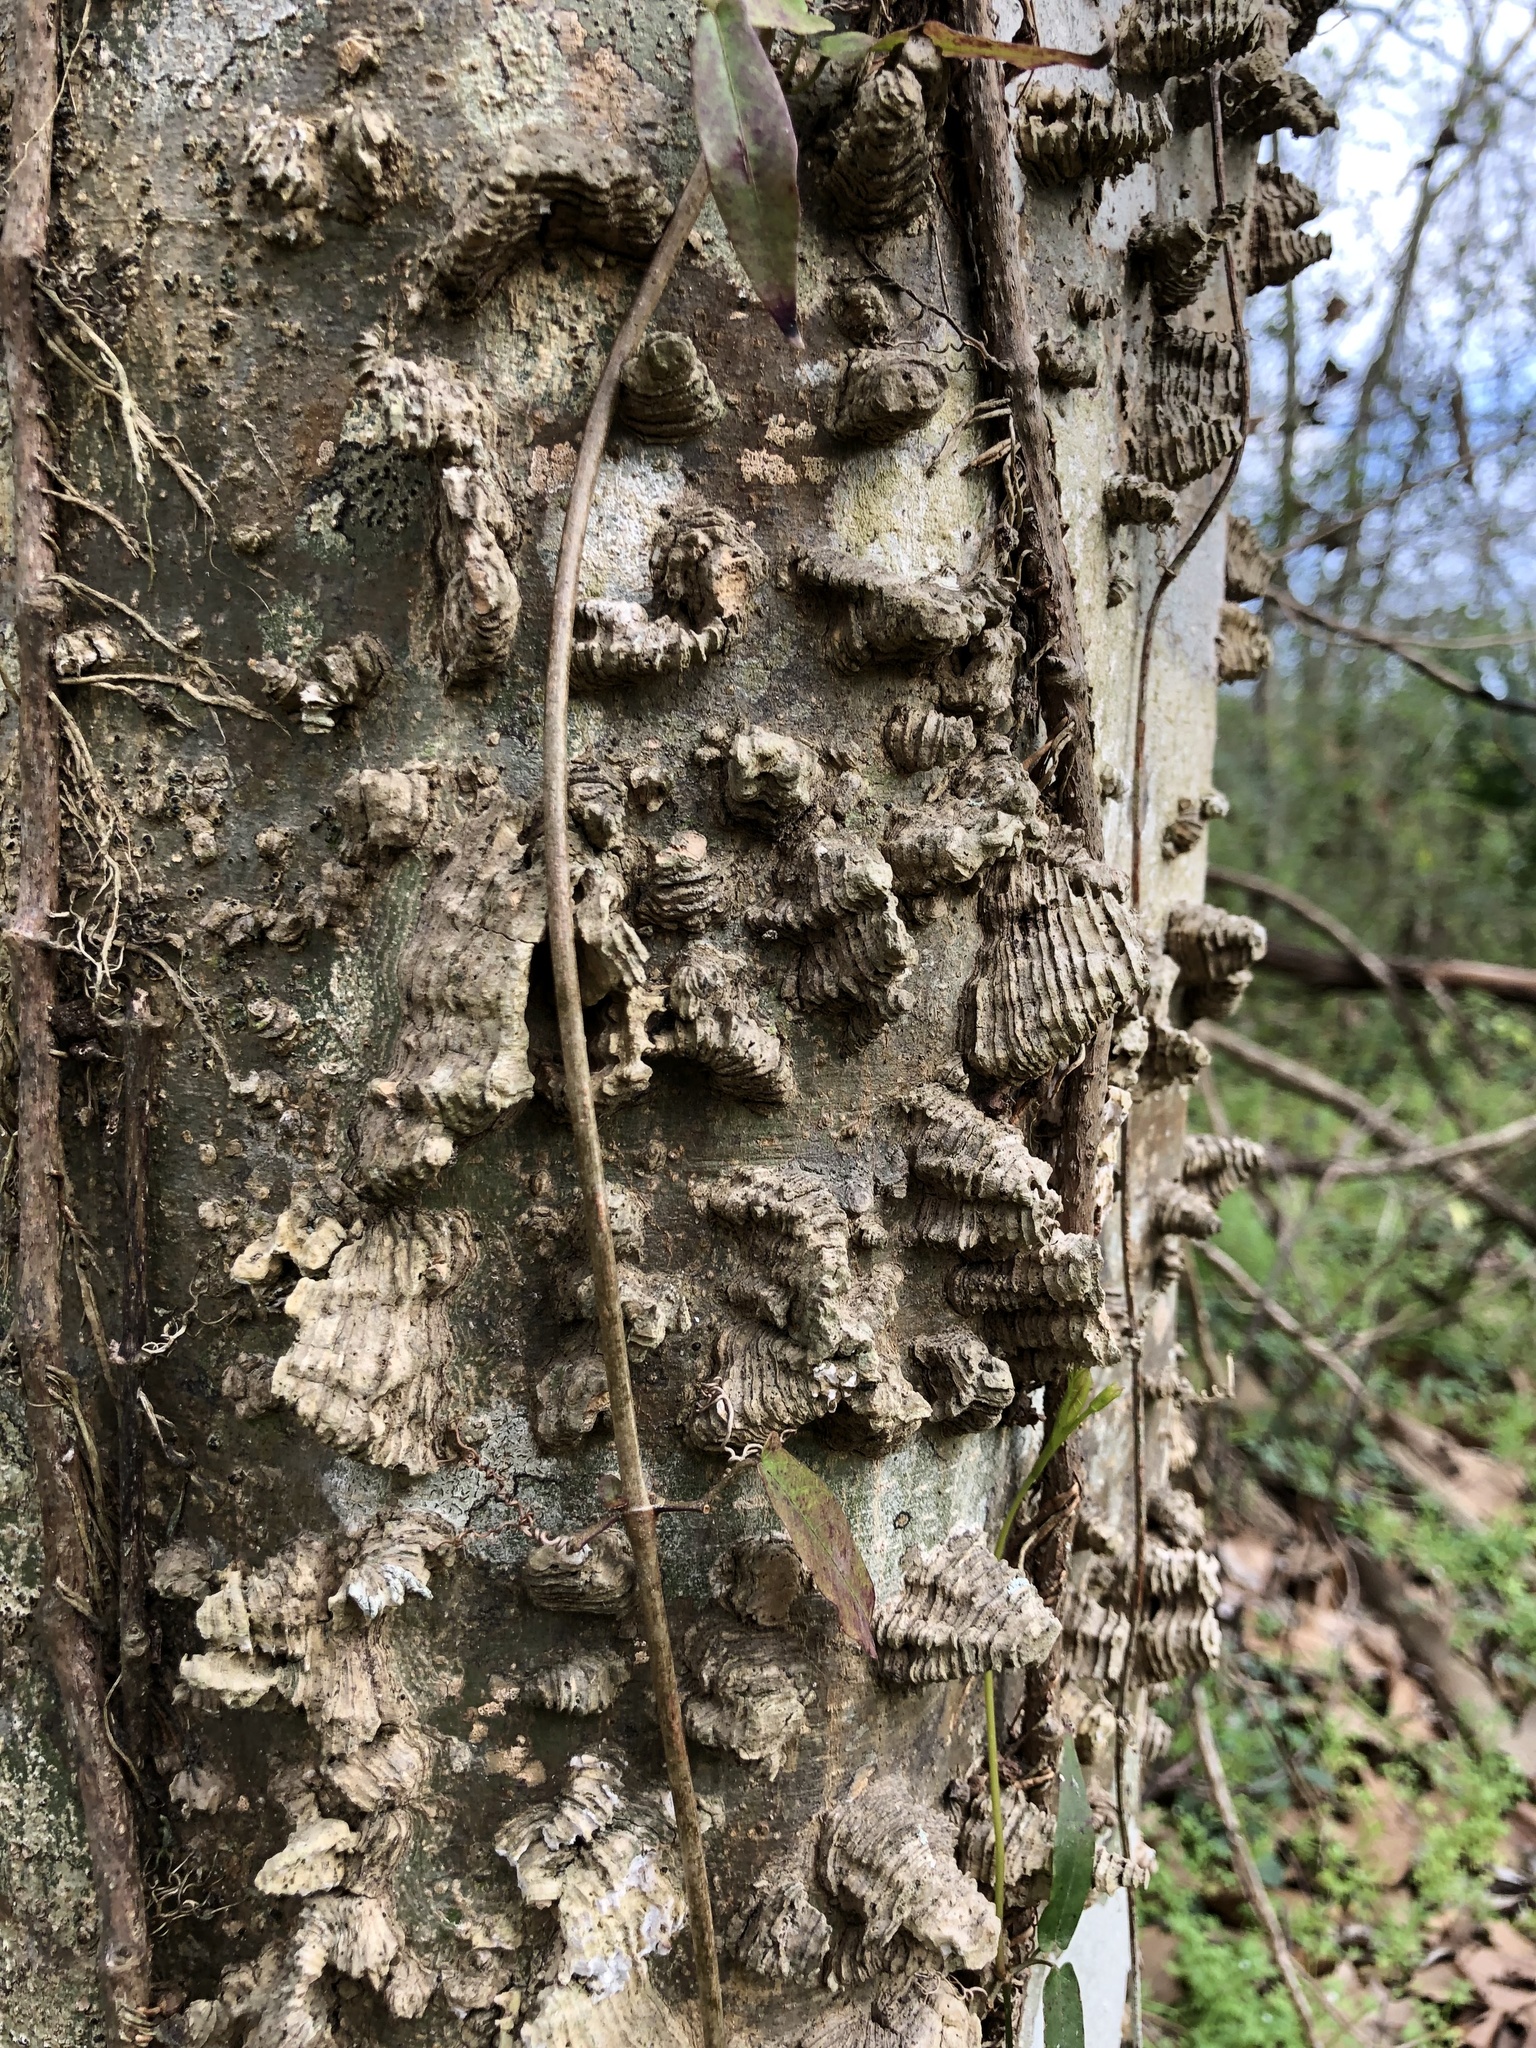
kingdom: Plantae
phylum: Tracheophyta
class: Magnoliopsida
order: Rosales
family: Cannabaceae
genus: Celtis
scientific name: Celtis laevigata
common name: Sugarberry
